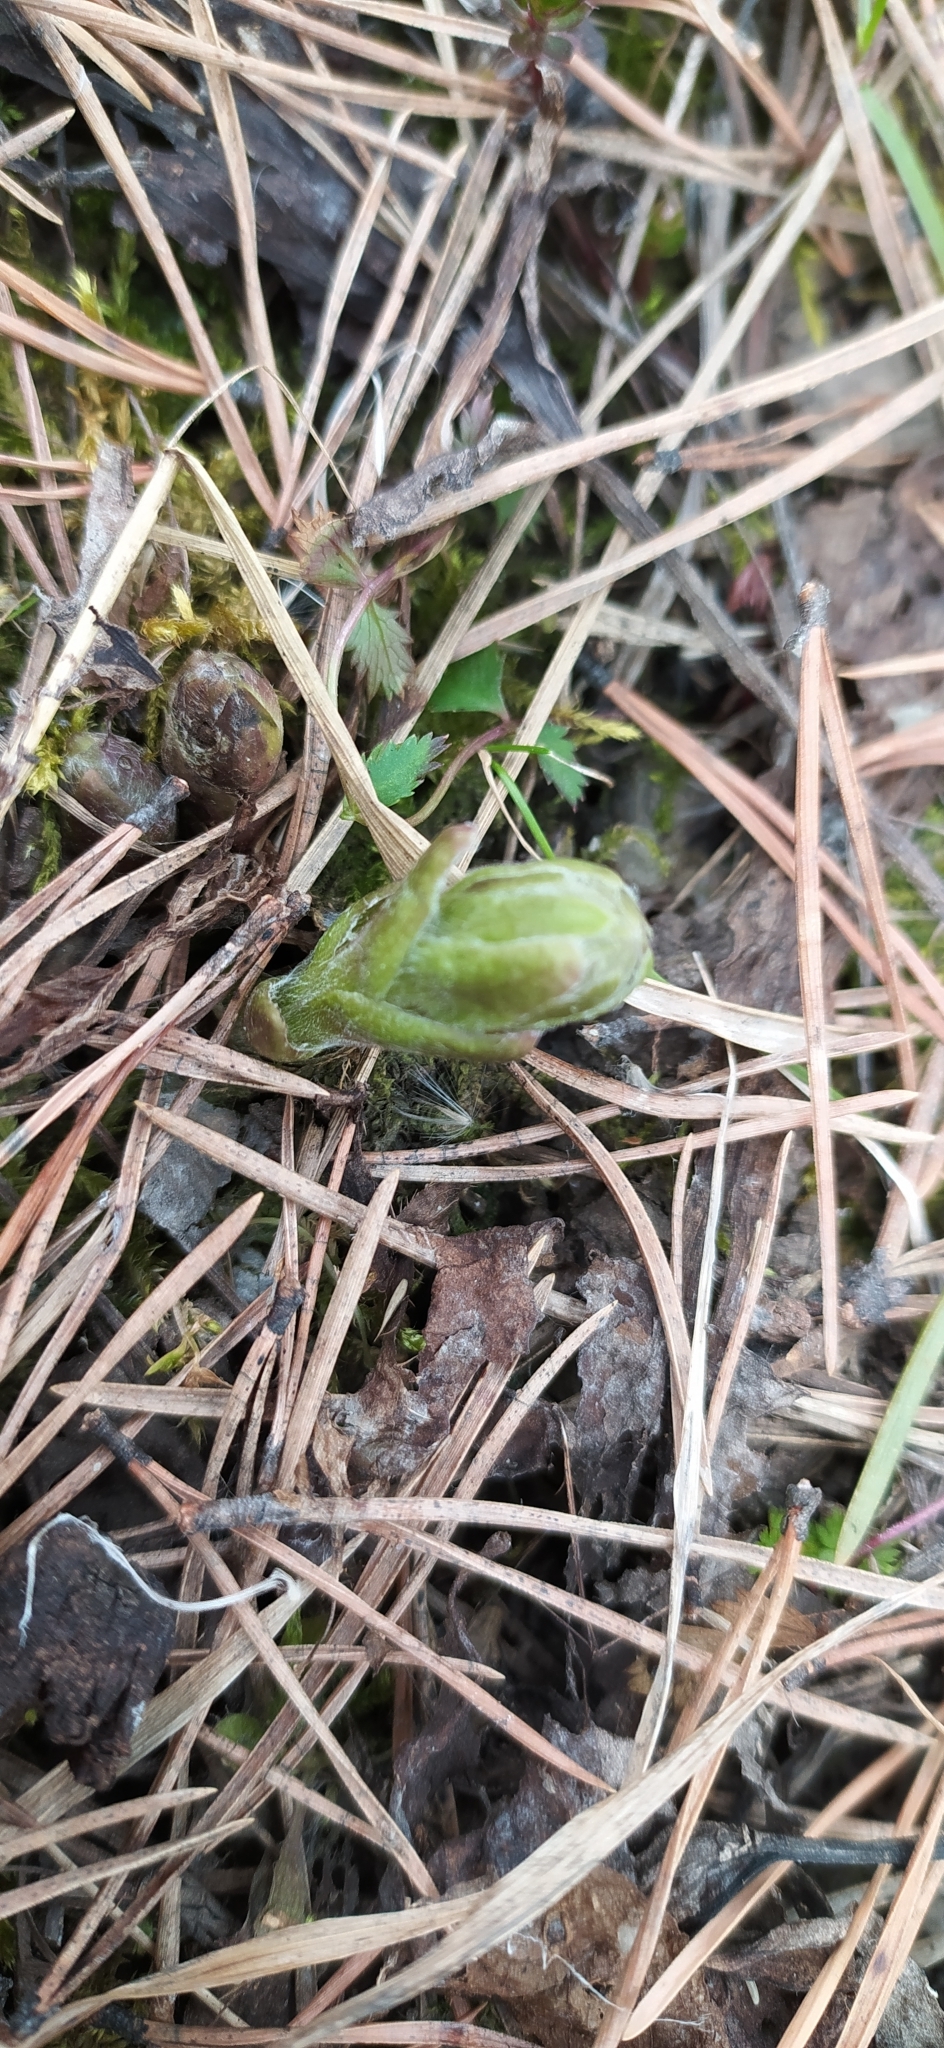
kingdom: Plantae
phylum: Tracheophyta
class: Magnoliopsida
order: Asterales
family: Asteraceae
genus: Tussilago
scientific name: Tussilago farfara
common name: Coltsfoot
